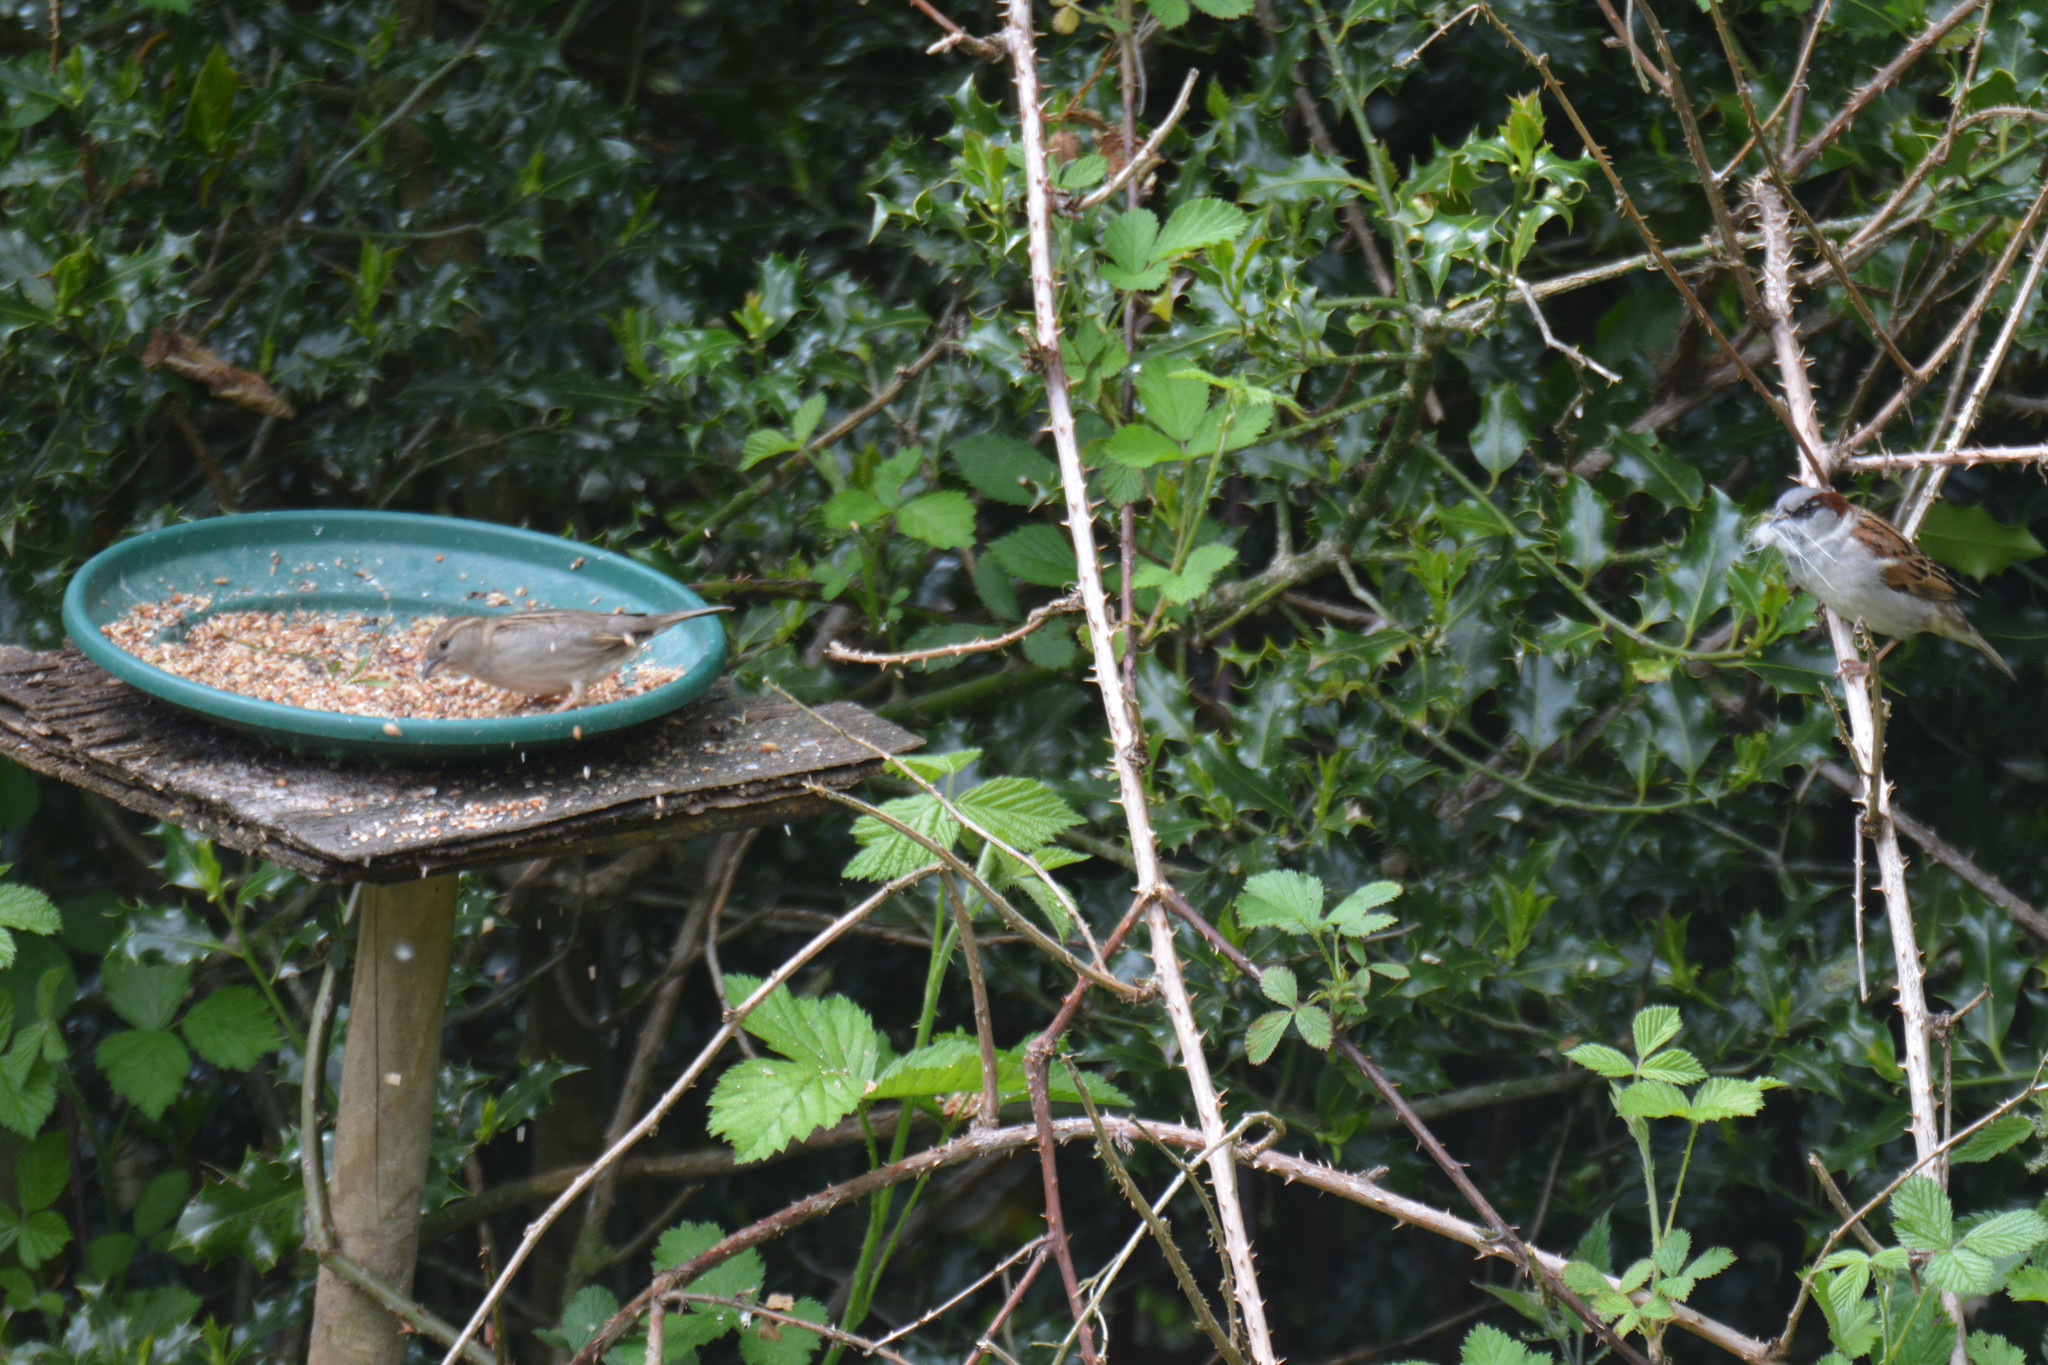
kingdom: Animalia
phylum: Chordata
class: Aves
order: Passeriformes
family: Passeridae
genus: Passer
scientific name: Passer domesticus
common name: House sparrow
